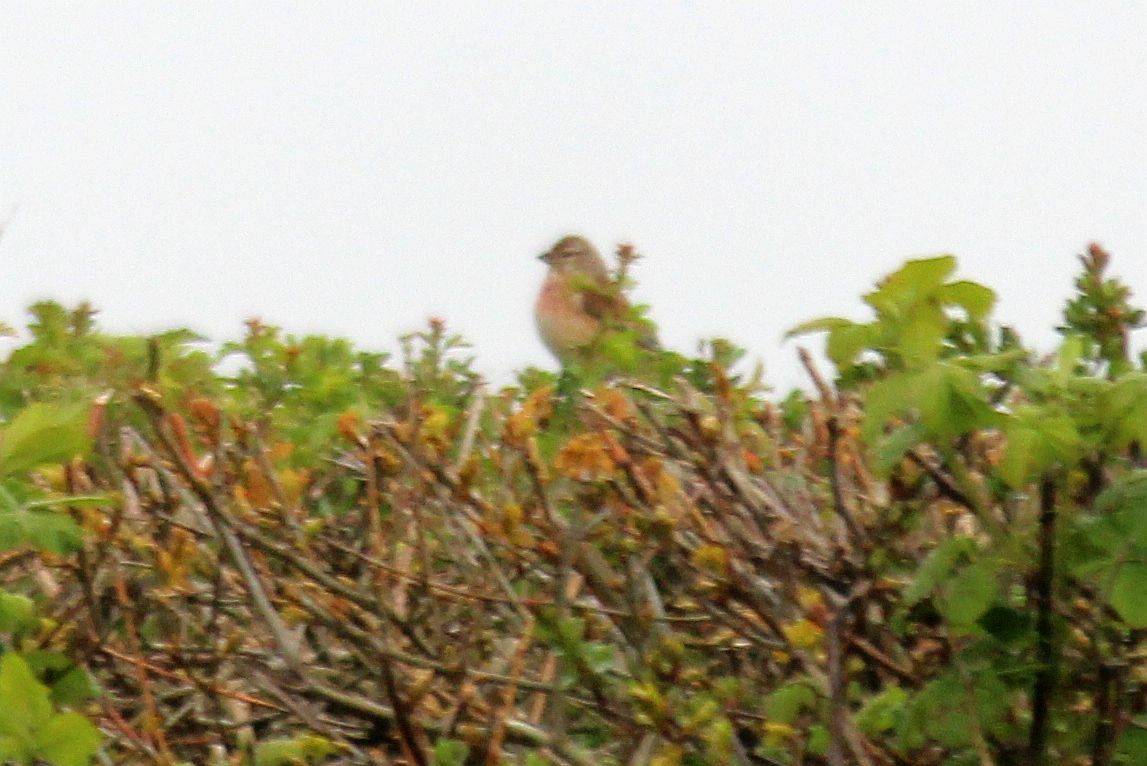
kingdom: Animalia
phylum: Chordata
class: Aves
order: Passeriformes
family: Fringillidae
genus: Linaria
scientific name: Linaria cannabina
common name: Common linnet
